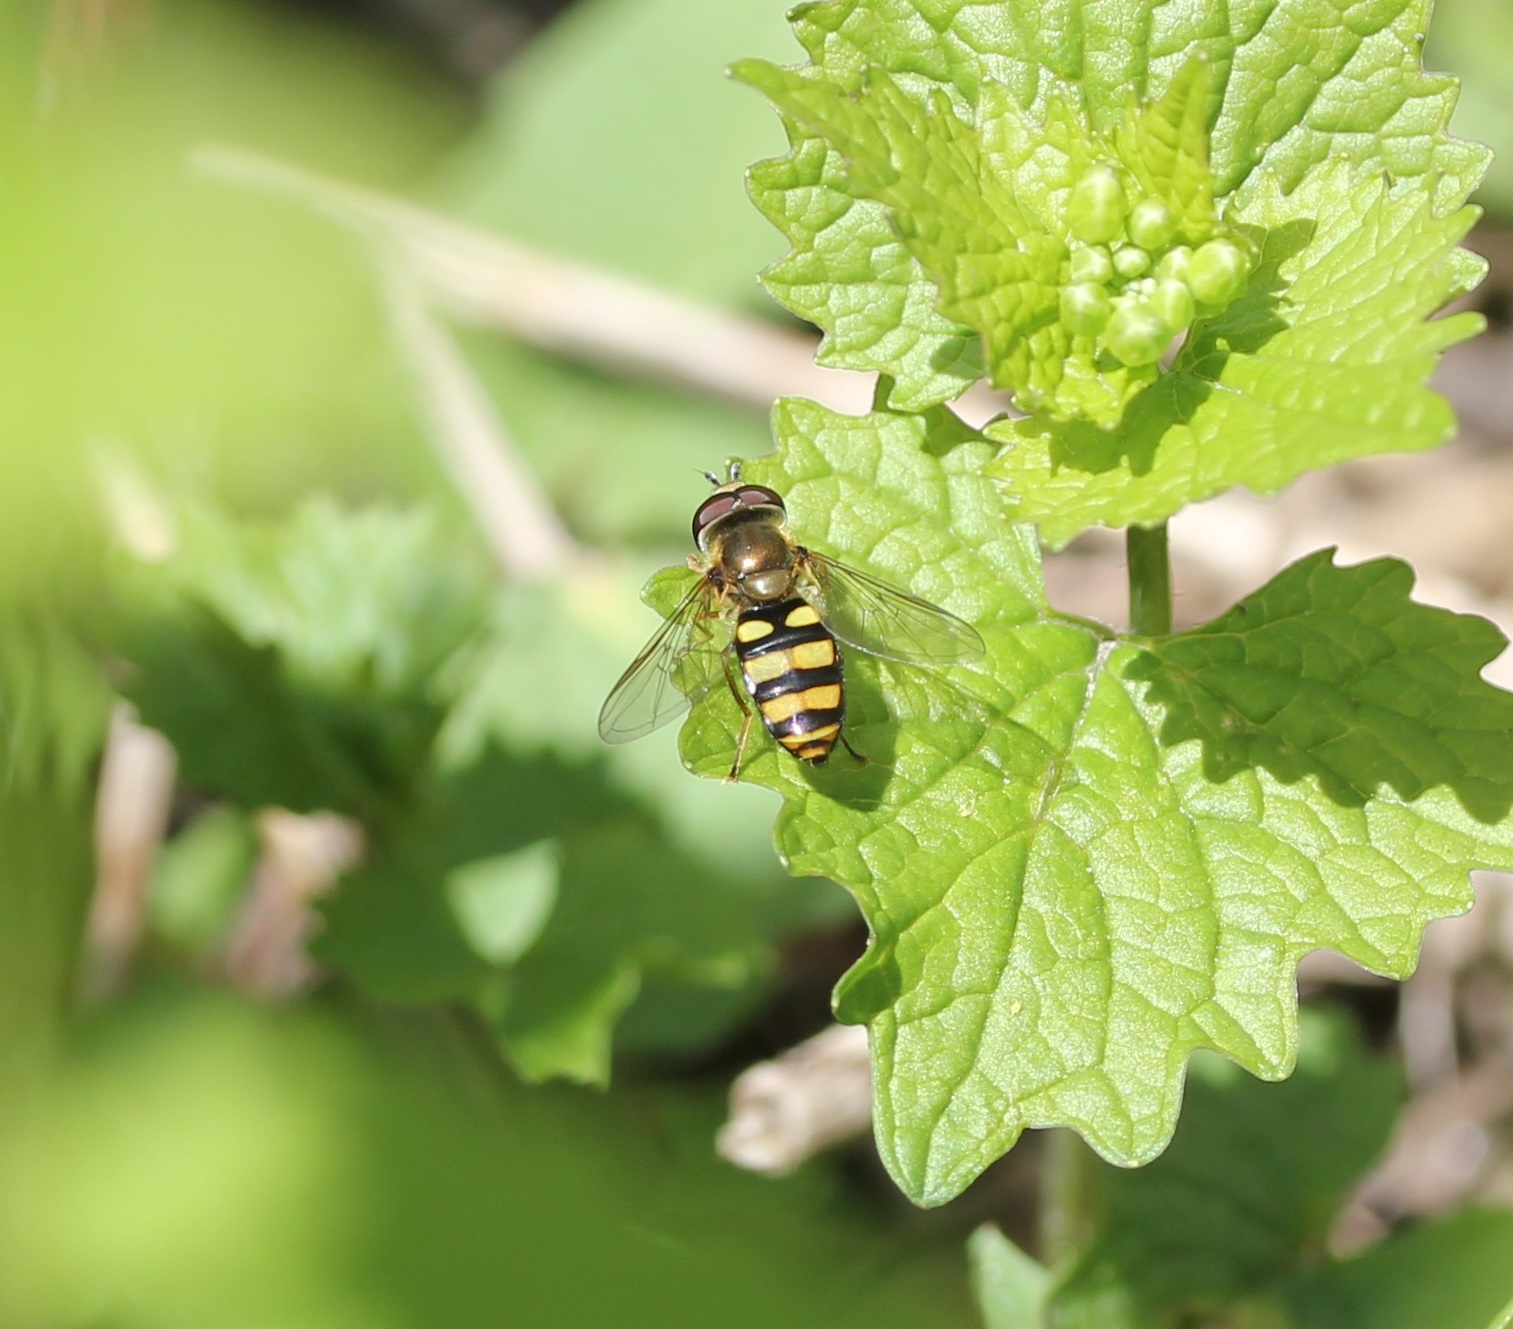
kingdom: Animalia
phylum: Arthropoda
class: Insecta
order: Diptera
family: Syrphidae
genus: Eupeodes
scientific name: Eupeodes
